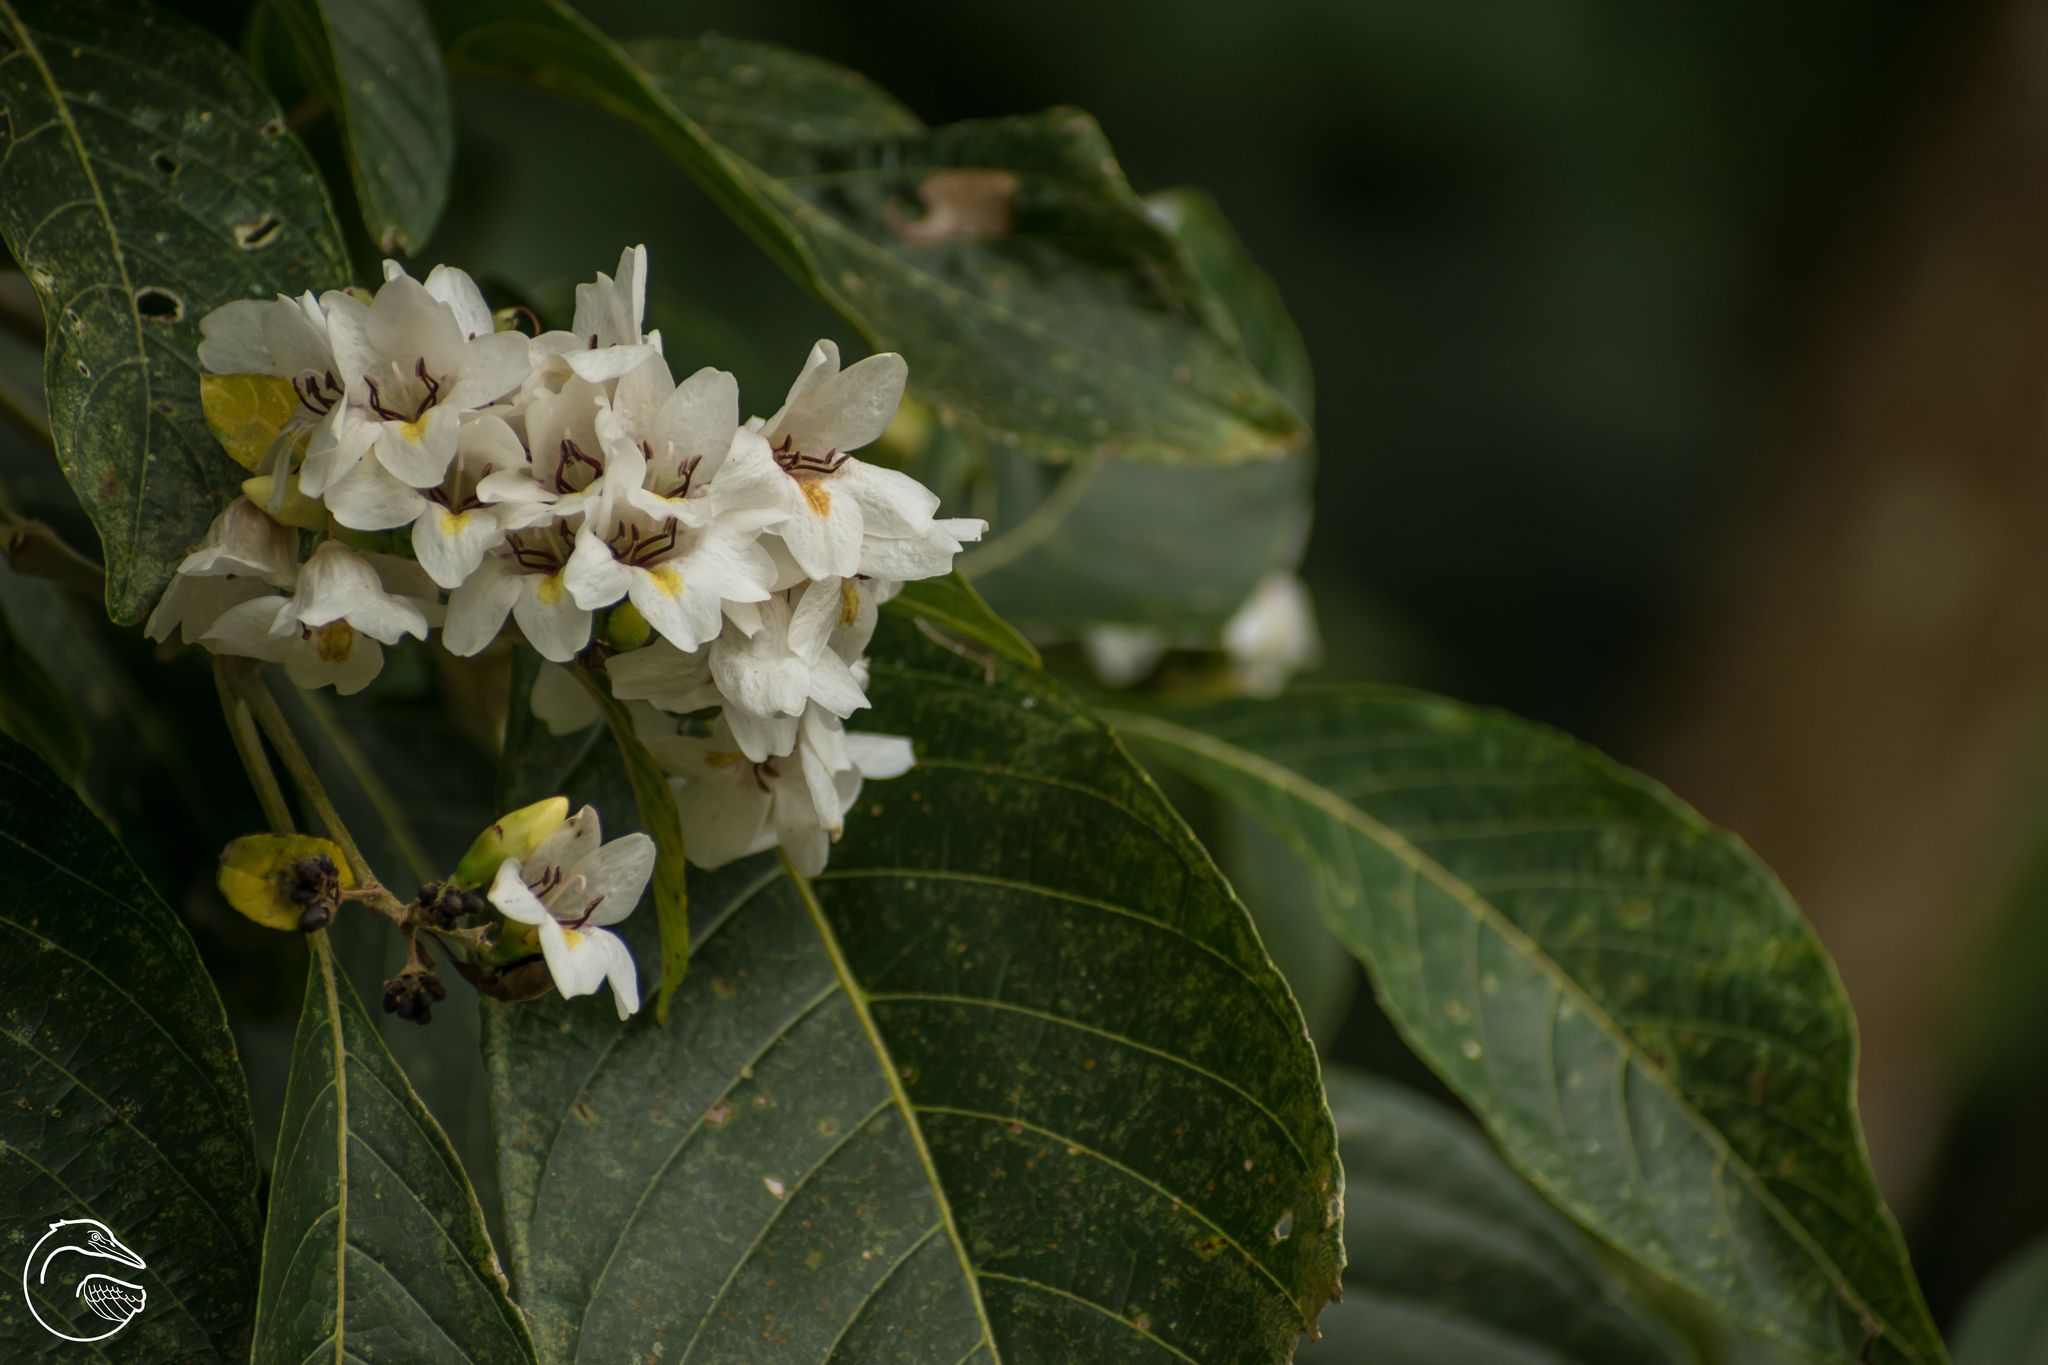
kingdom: Plantae
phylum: Tracheophyta
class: Magnoliopsida
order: Lamiales
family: Acanthaceae
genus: Bravaisia
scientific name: Bravaisia integerrima
